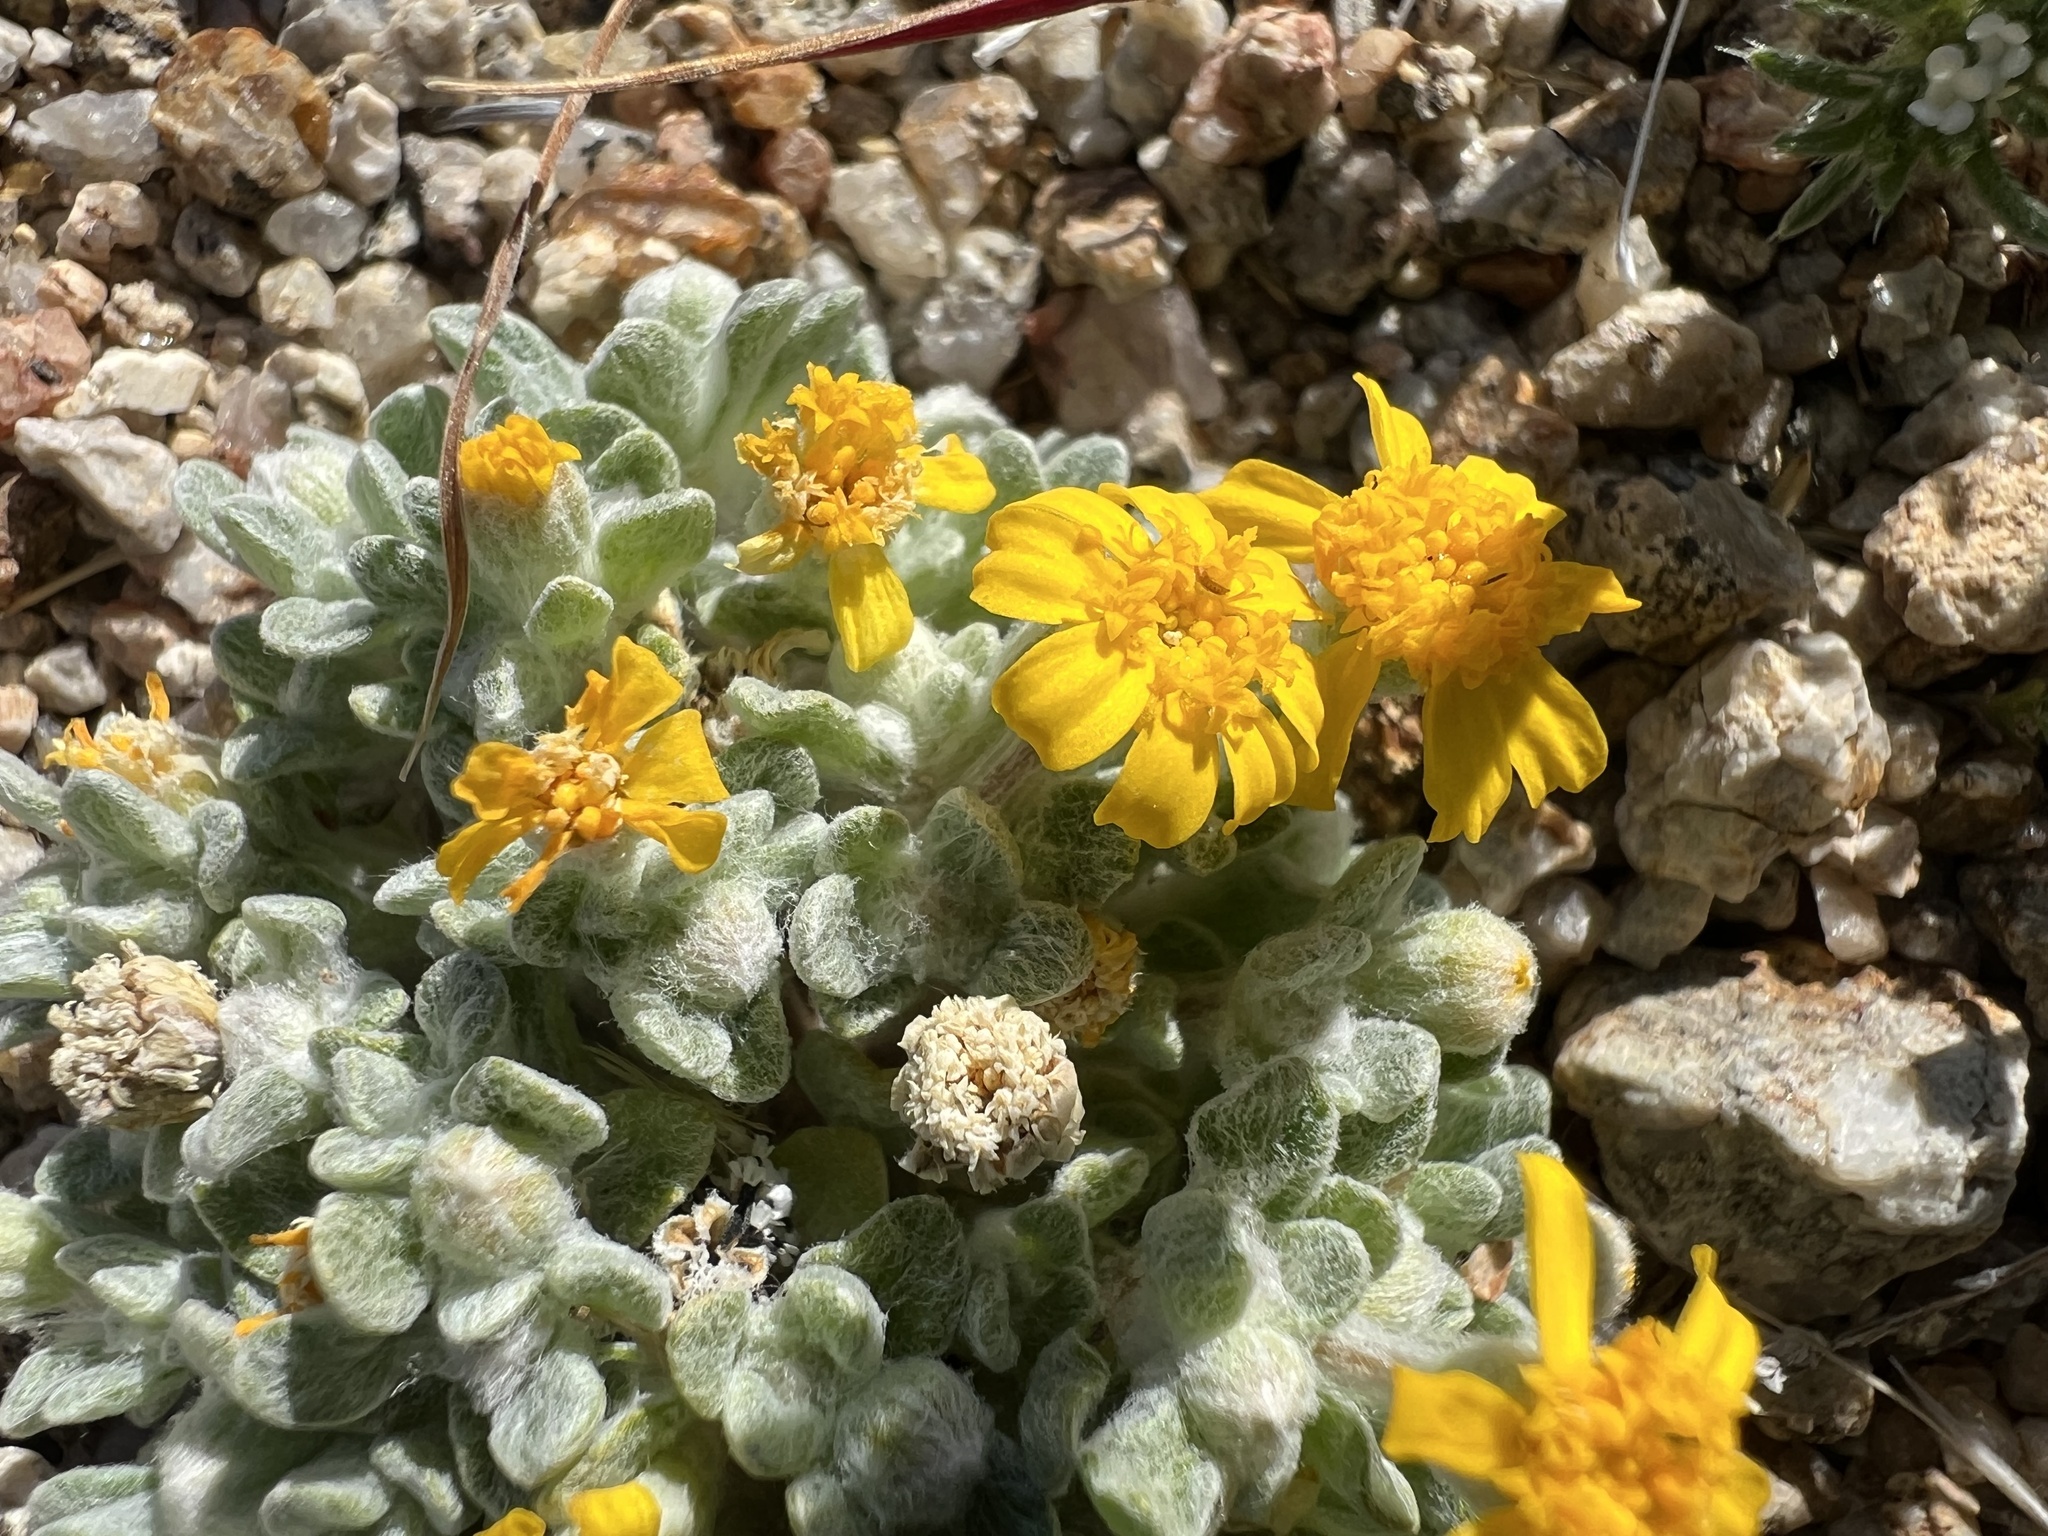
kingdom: Plantae
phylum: Tracheophyta
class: Magnoliopsida
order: Asterales
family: Asteraceae
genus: Eriophyllum
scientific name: Eriophyllum wallacei
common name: Wallace's woolly daisy
